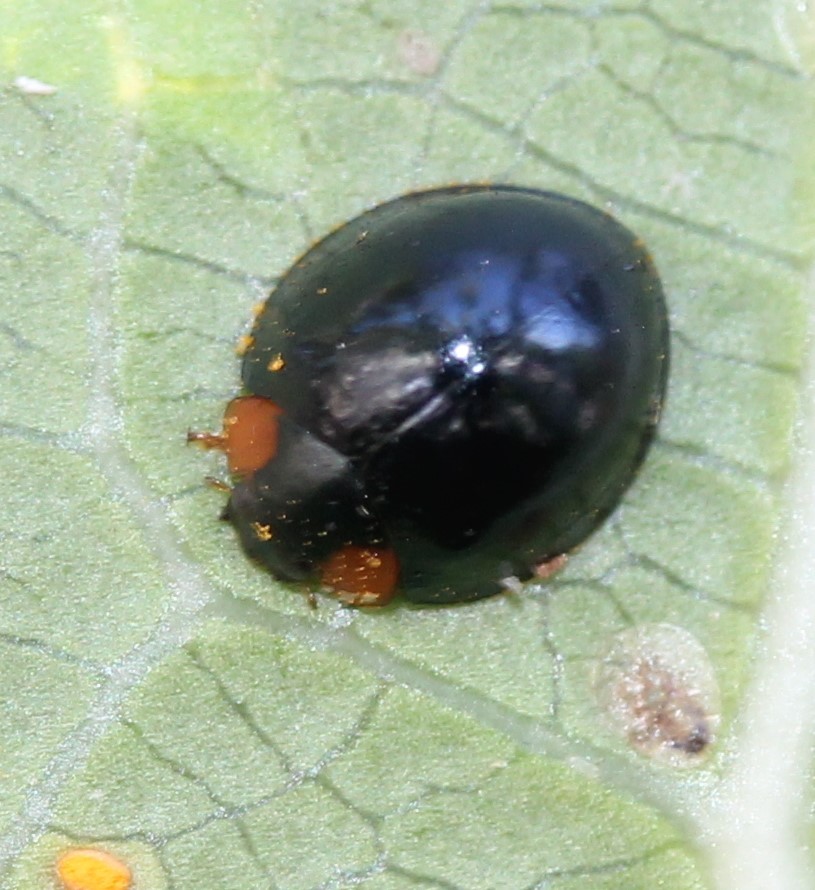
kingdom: Animalia
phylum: Arthropoda
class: Insecta
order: Coleoptera
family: Coccinellidae
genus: Curinus
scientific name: Curinus coeruleus
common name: Ladybird beetle
